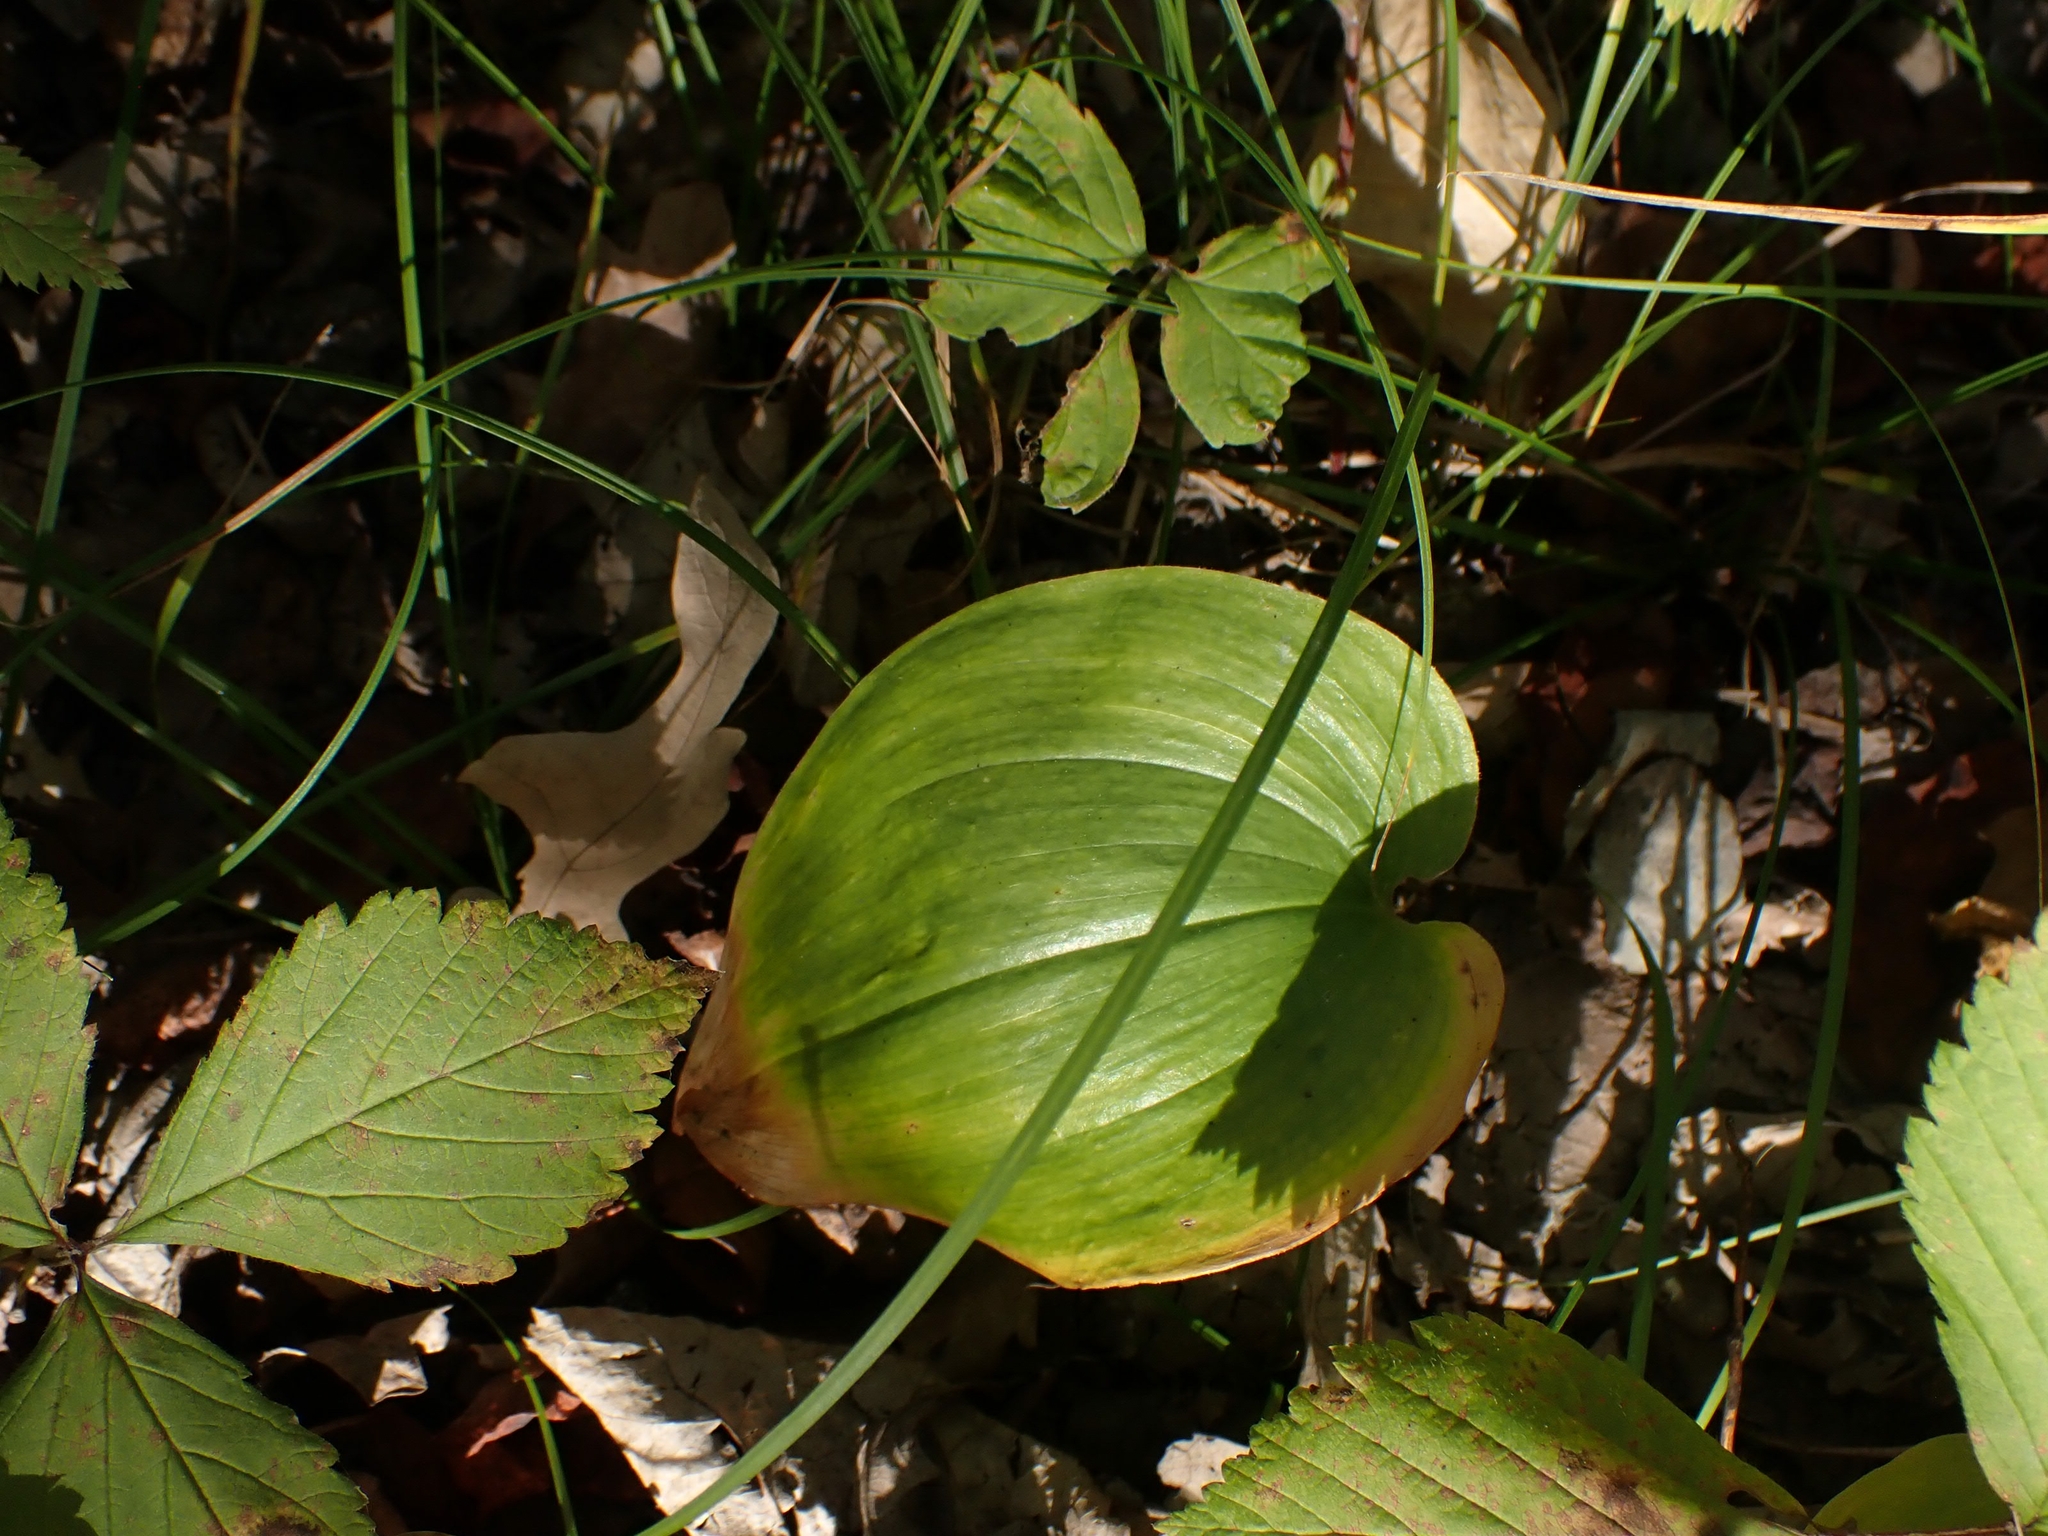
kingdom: Plantae
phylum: Tracheophyta
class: Liliopsida
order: Asparagales
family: Asparagaceae
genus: Maianthemum
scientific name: Maianthemum canadense
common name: False lily-of-the-valley
